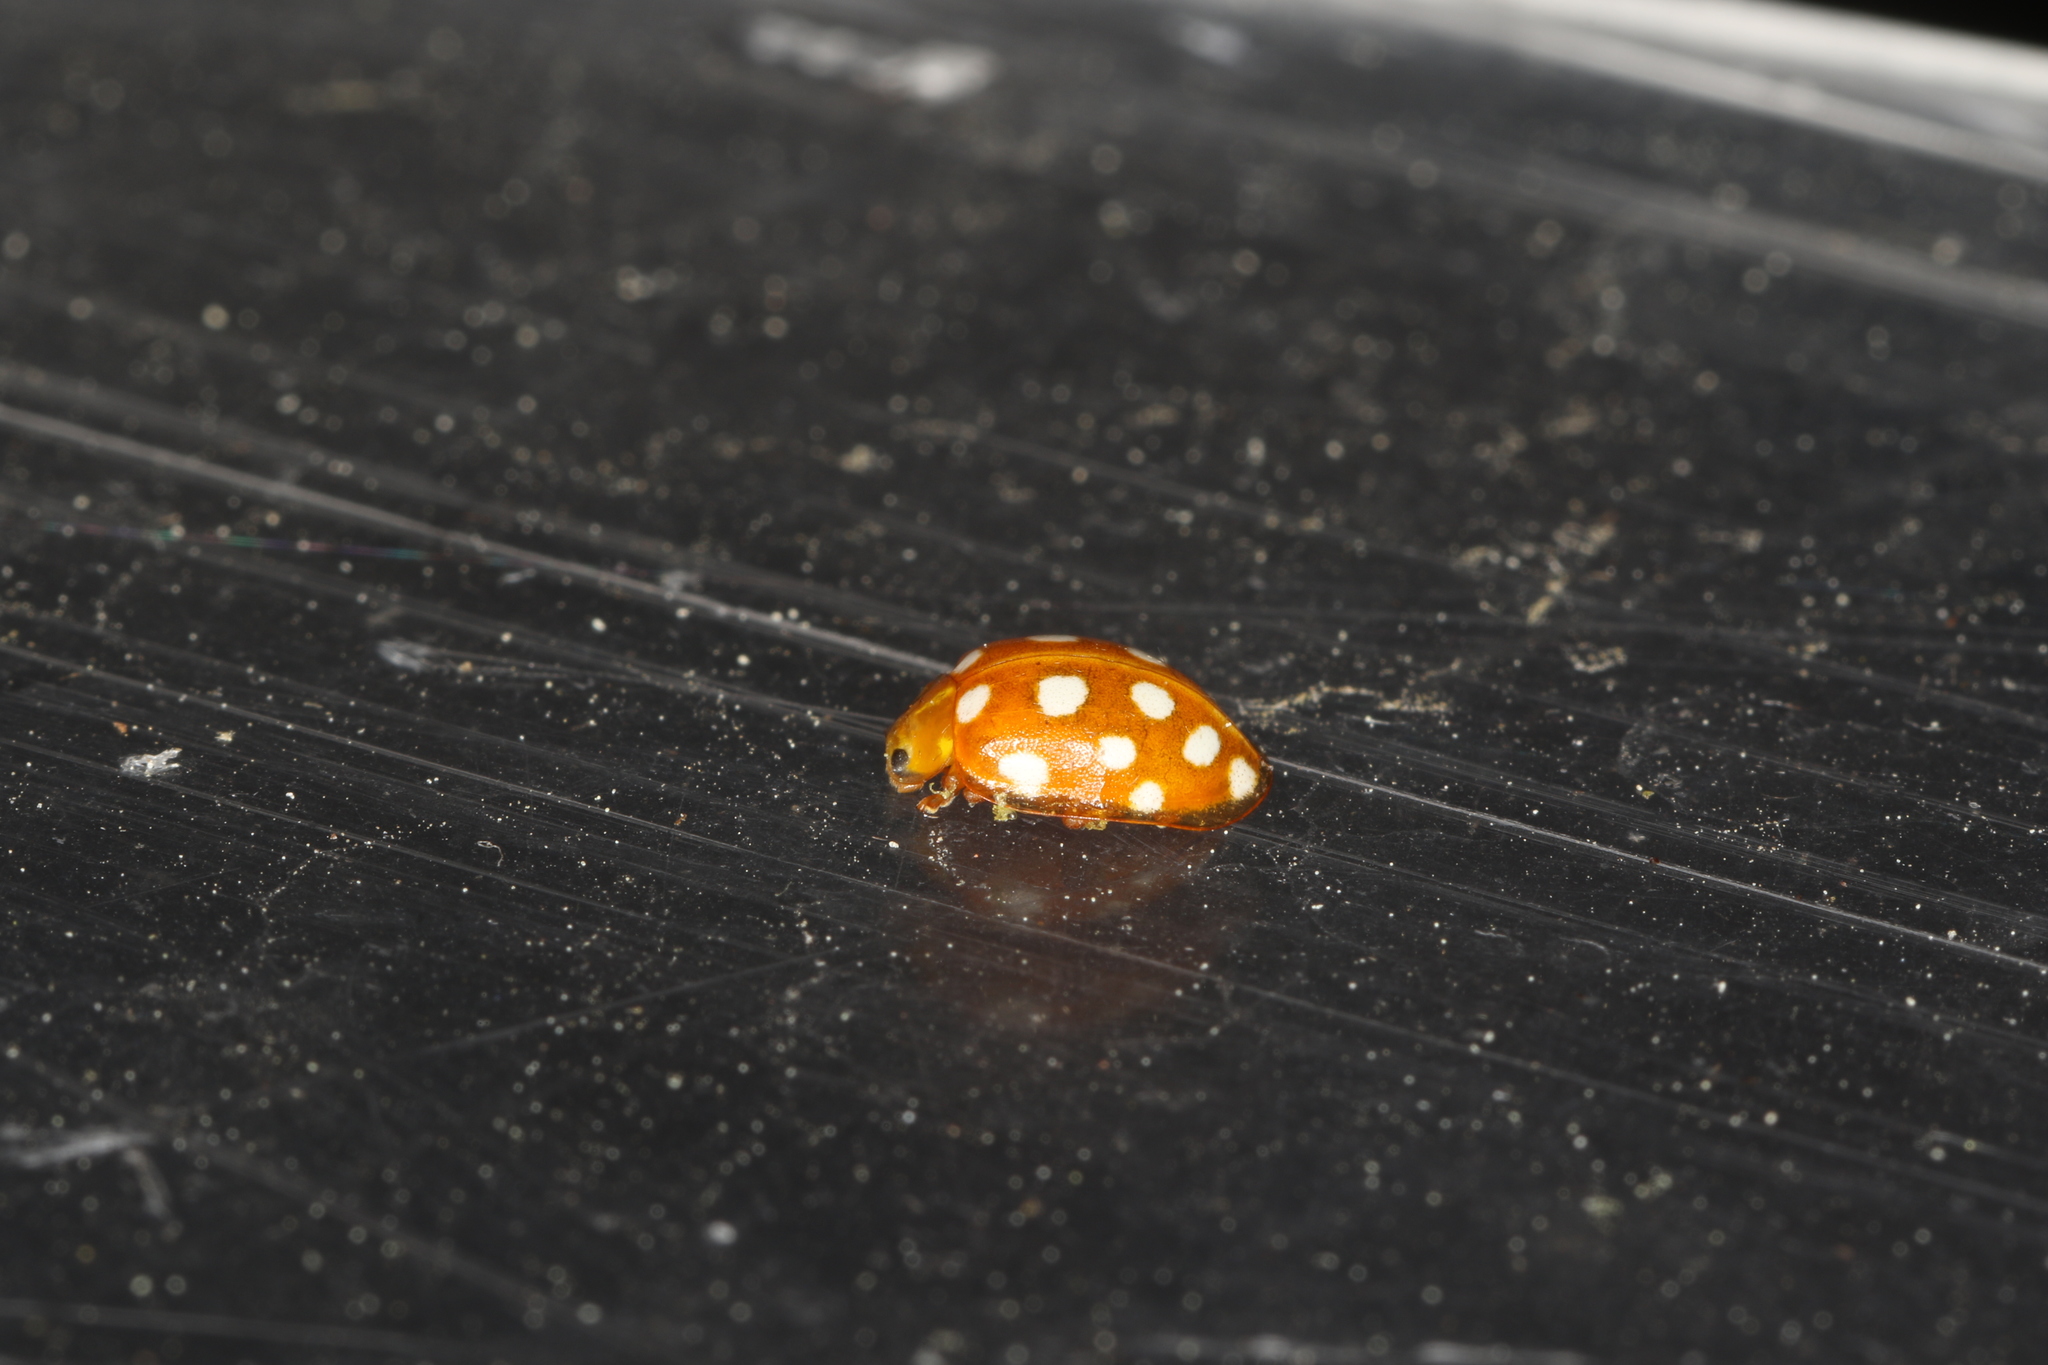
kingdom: Animalia
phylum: Arthropoda
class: Insecta
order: Coleoptera
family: Coccinellidae
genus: Halyzia
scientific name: Halyzia sedecimguttata
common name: Orange ladybird
